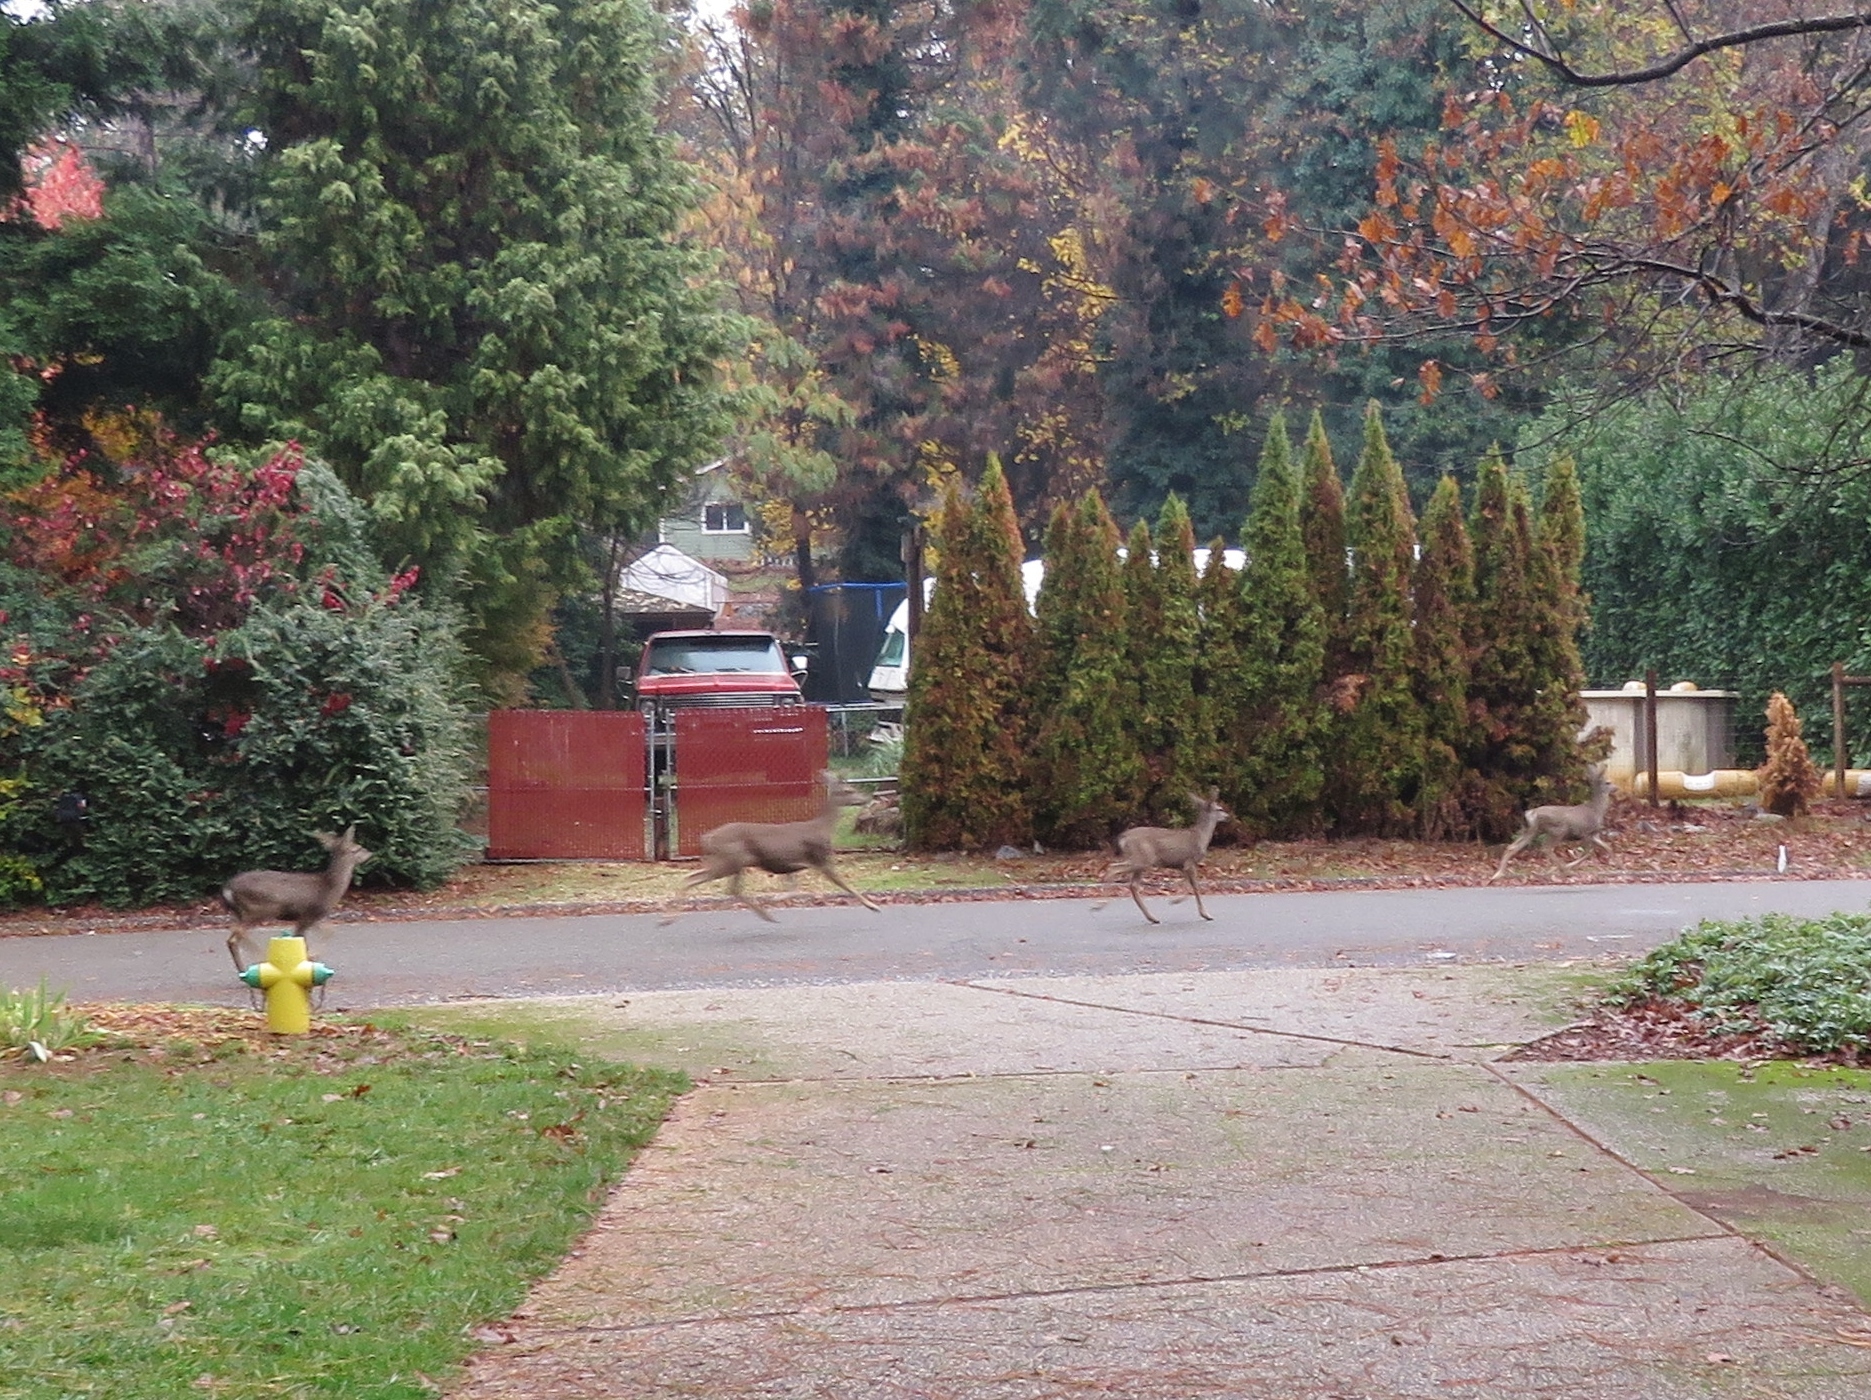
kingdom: Animalia
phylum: Chordata
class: Mammalia
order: Artiodactyla
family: Cervidae
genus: Odocoileus
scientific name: Odocoileus hemionus
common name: Mule deer
